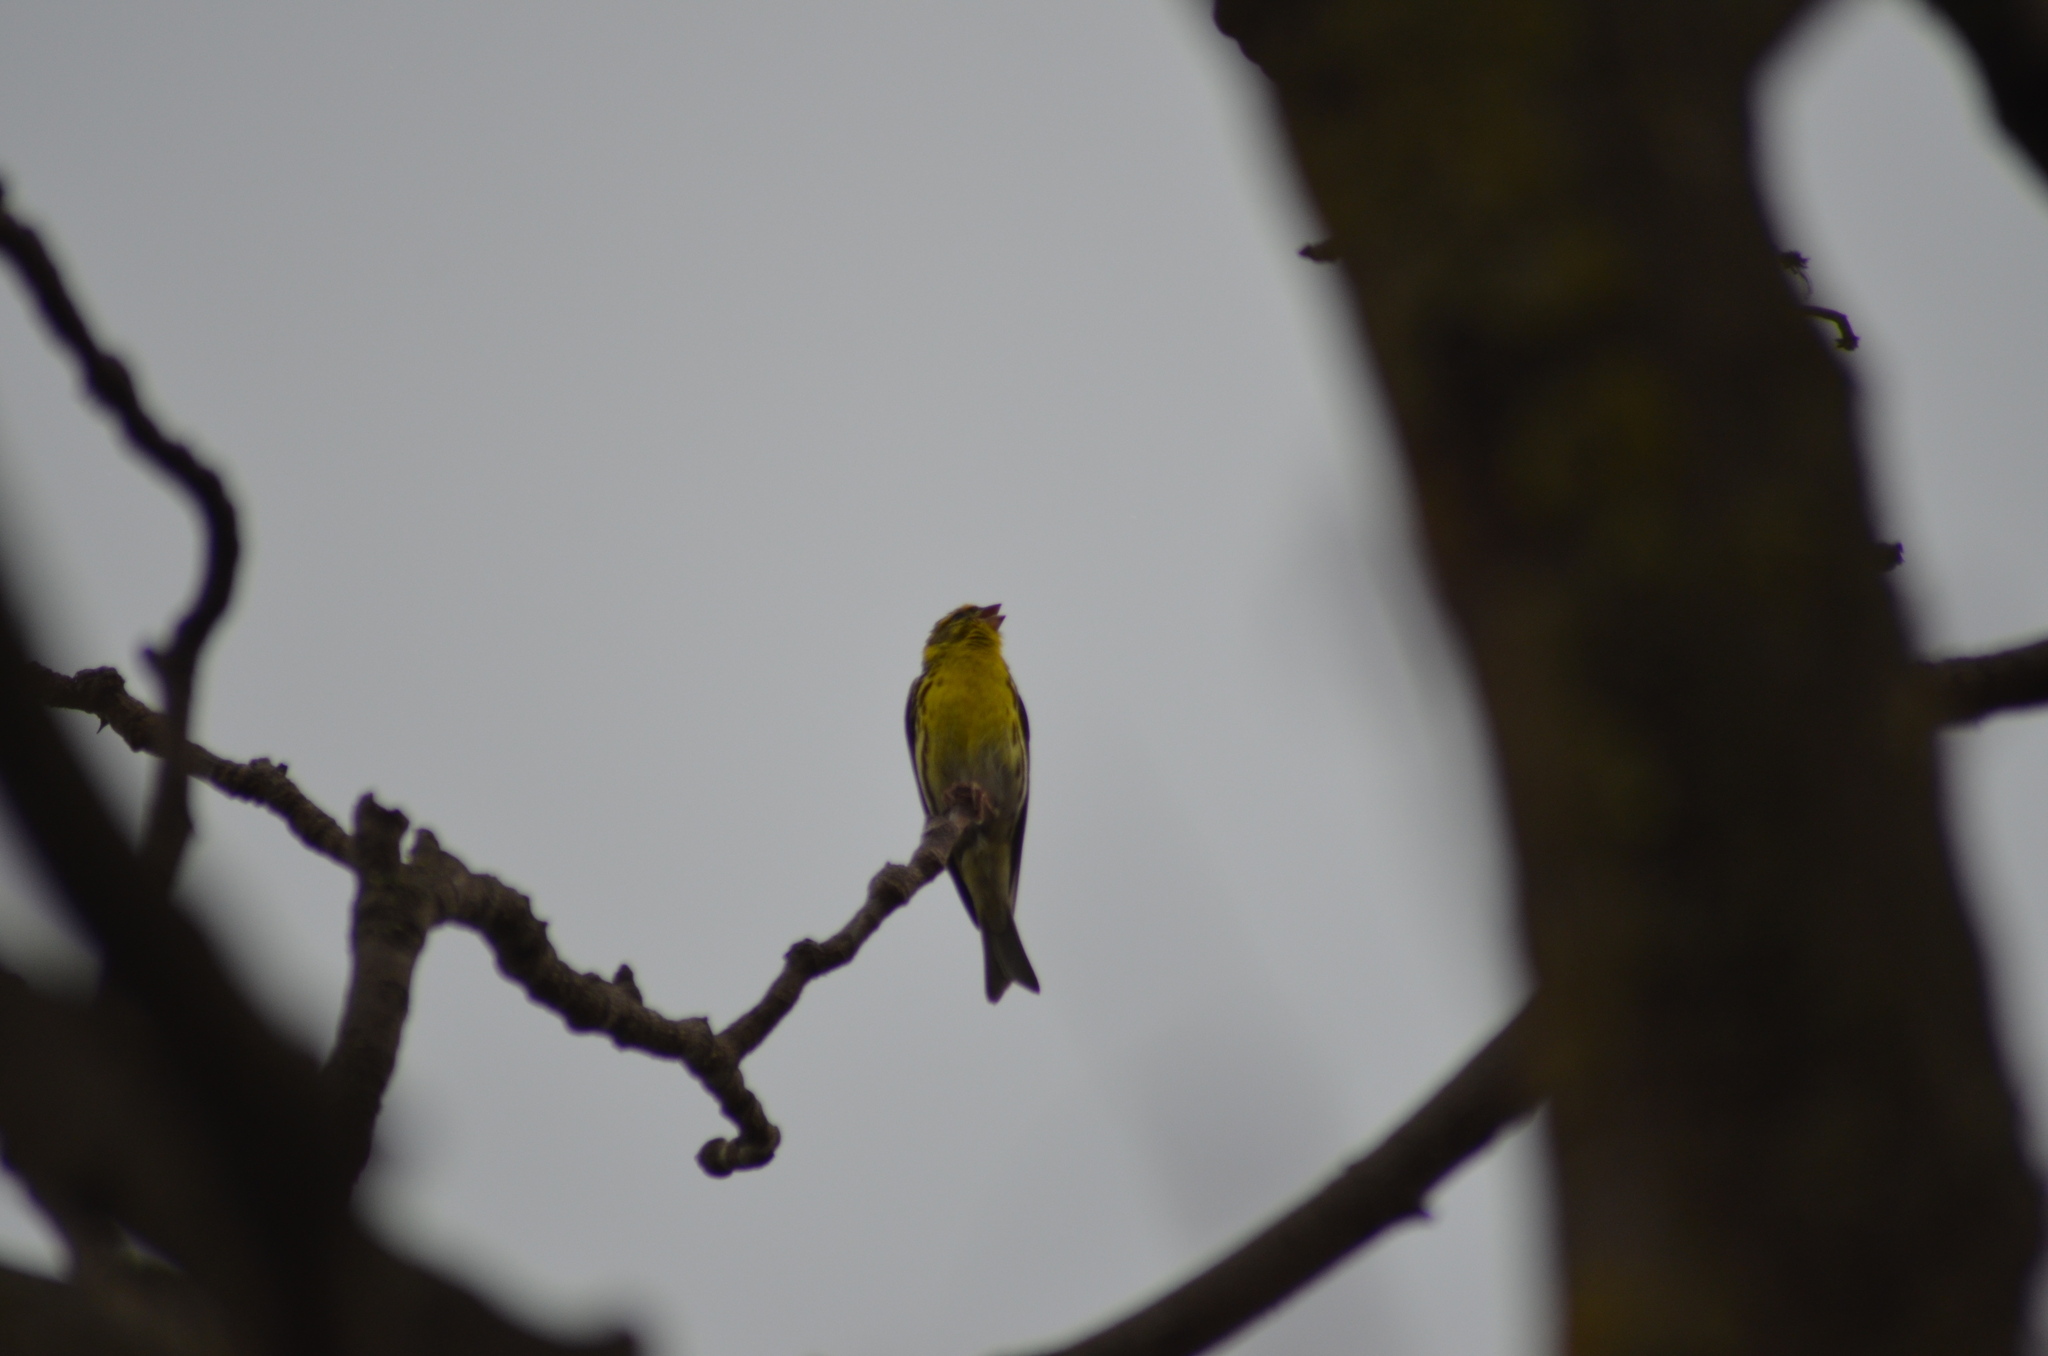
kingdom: Animalia
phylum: Chordata
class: Aves
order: Passeriformes
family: Fringillidae
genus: Serinus
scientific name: Serinus serinus
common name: European serin
